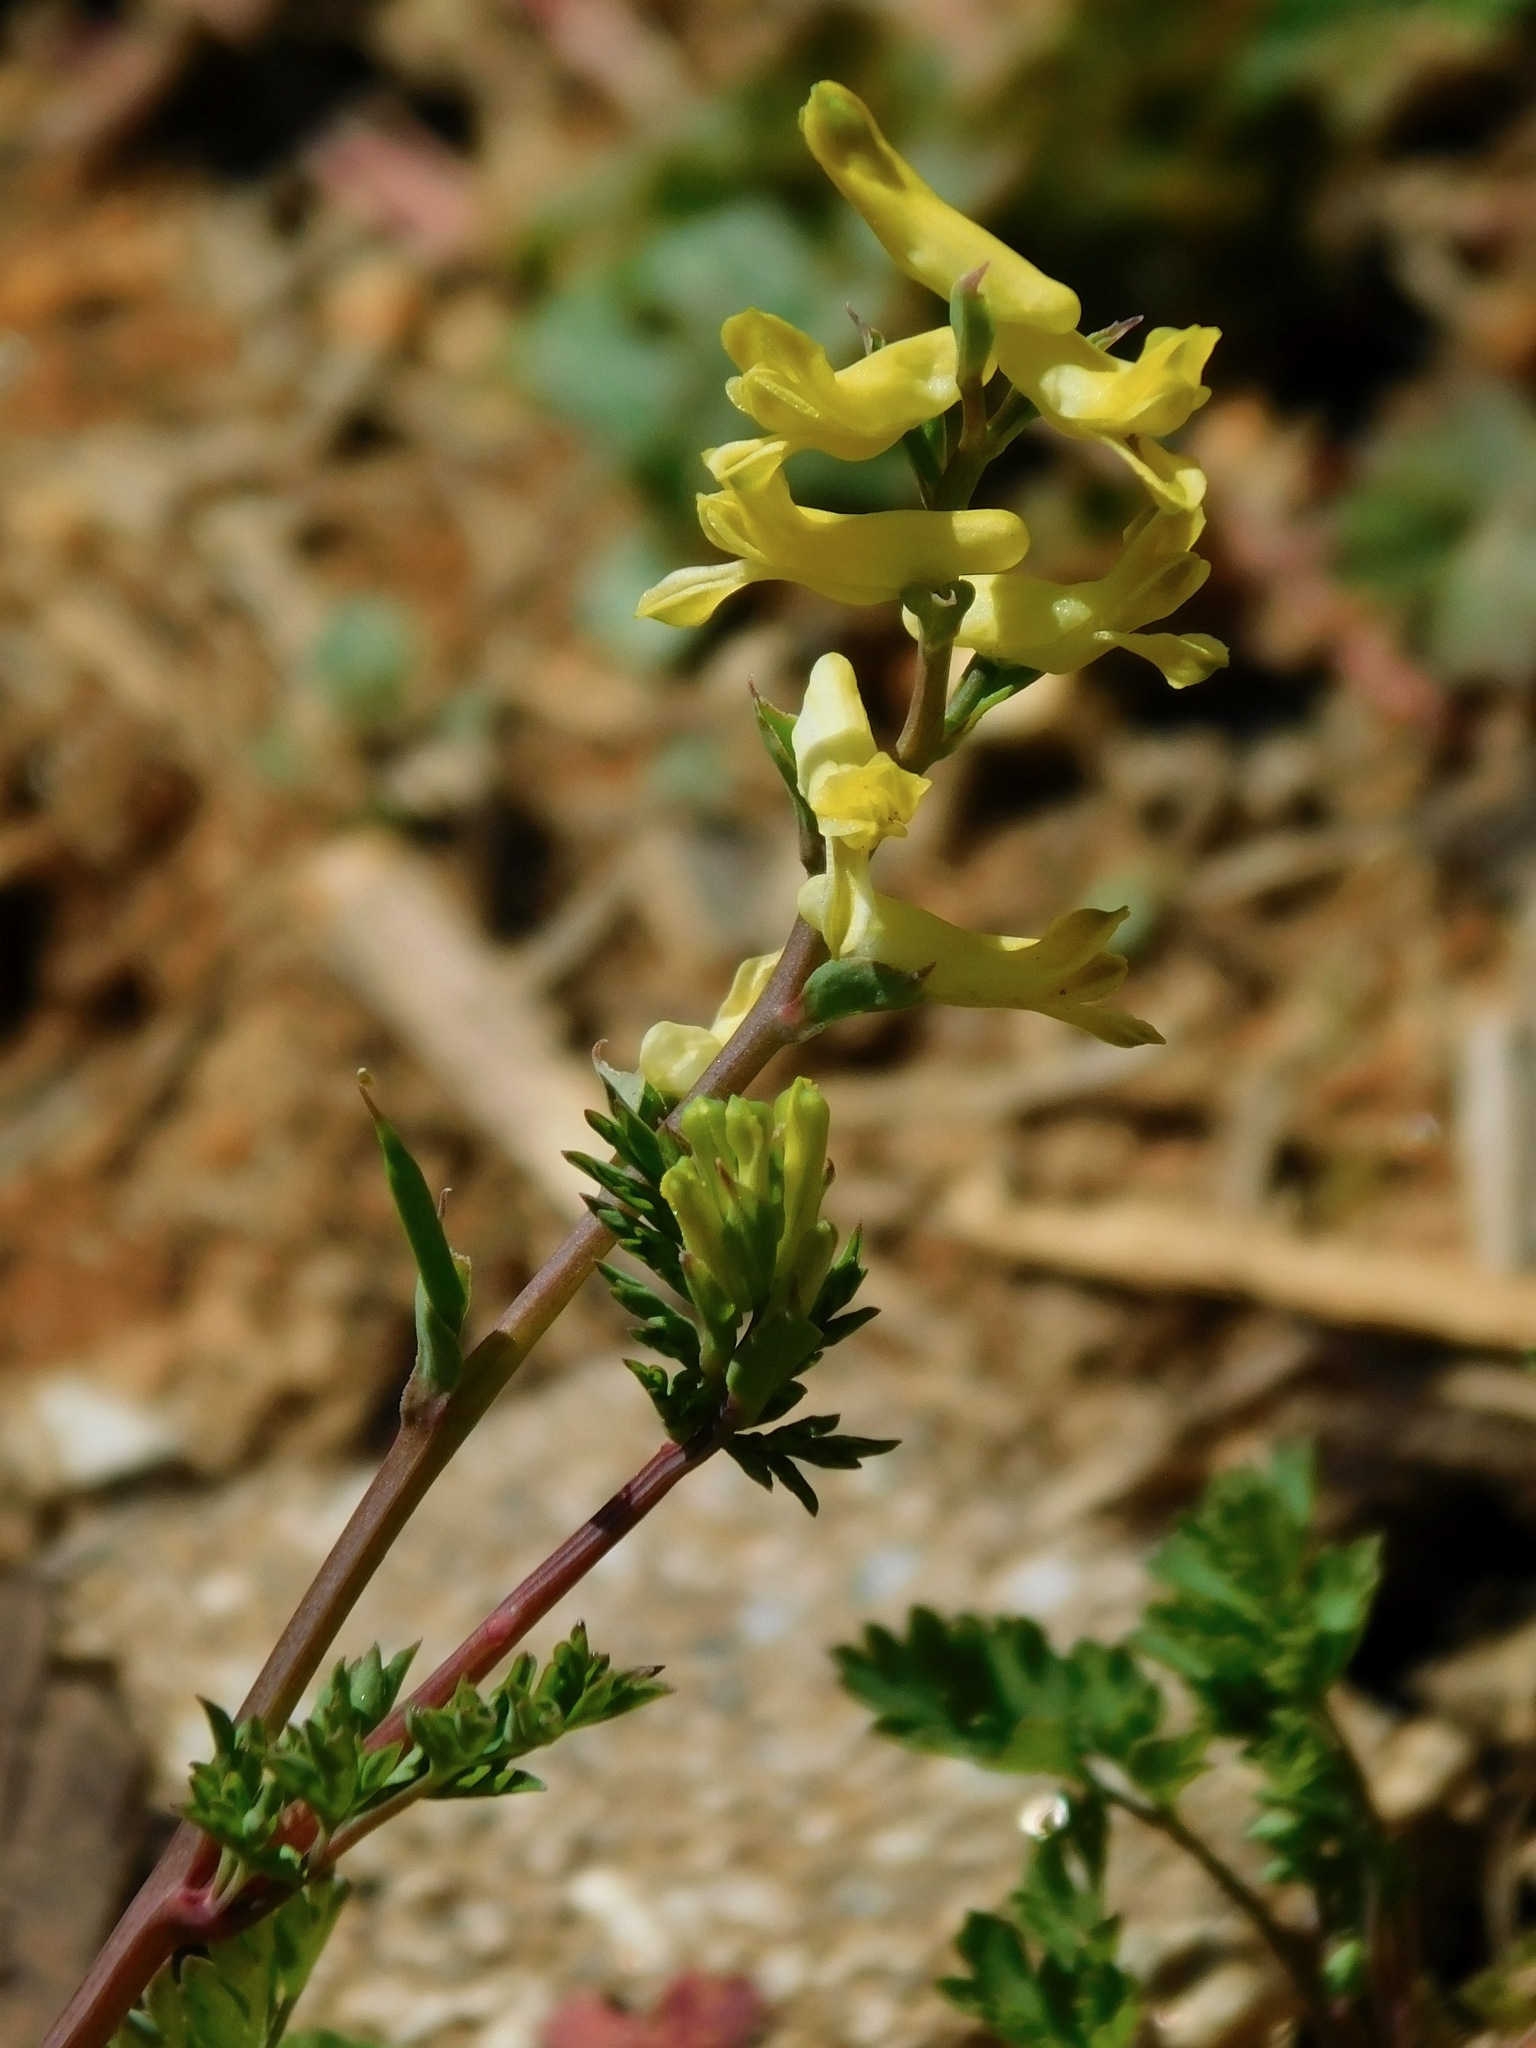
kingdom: Plantae
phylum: Tracheophyta
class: Magnoliopsida
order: Ranunculales
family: Papaveraceae
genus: Corydalis
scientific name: Corydalis flavula
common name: Yellow corydalis
